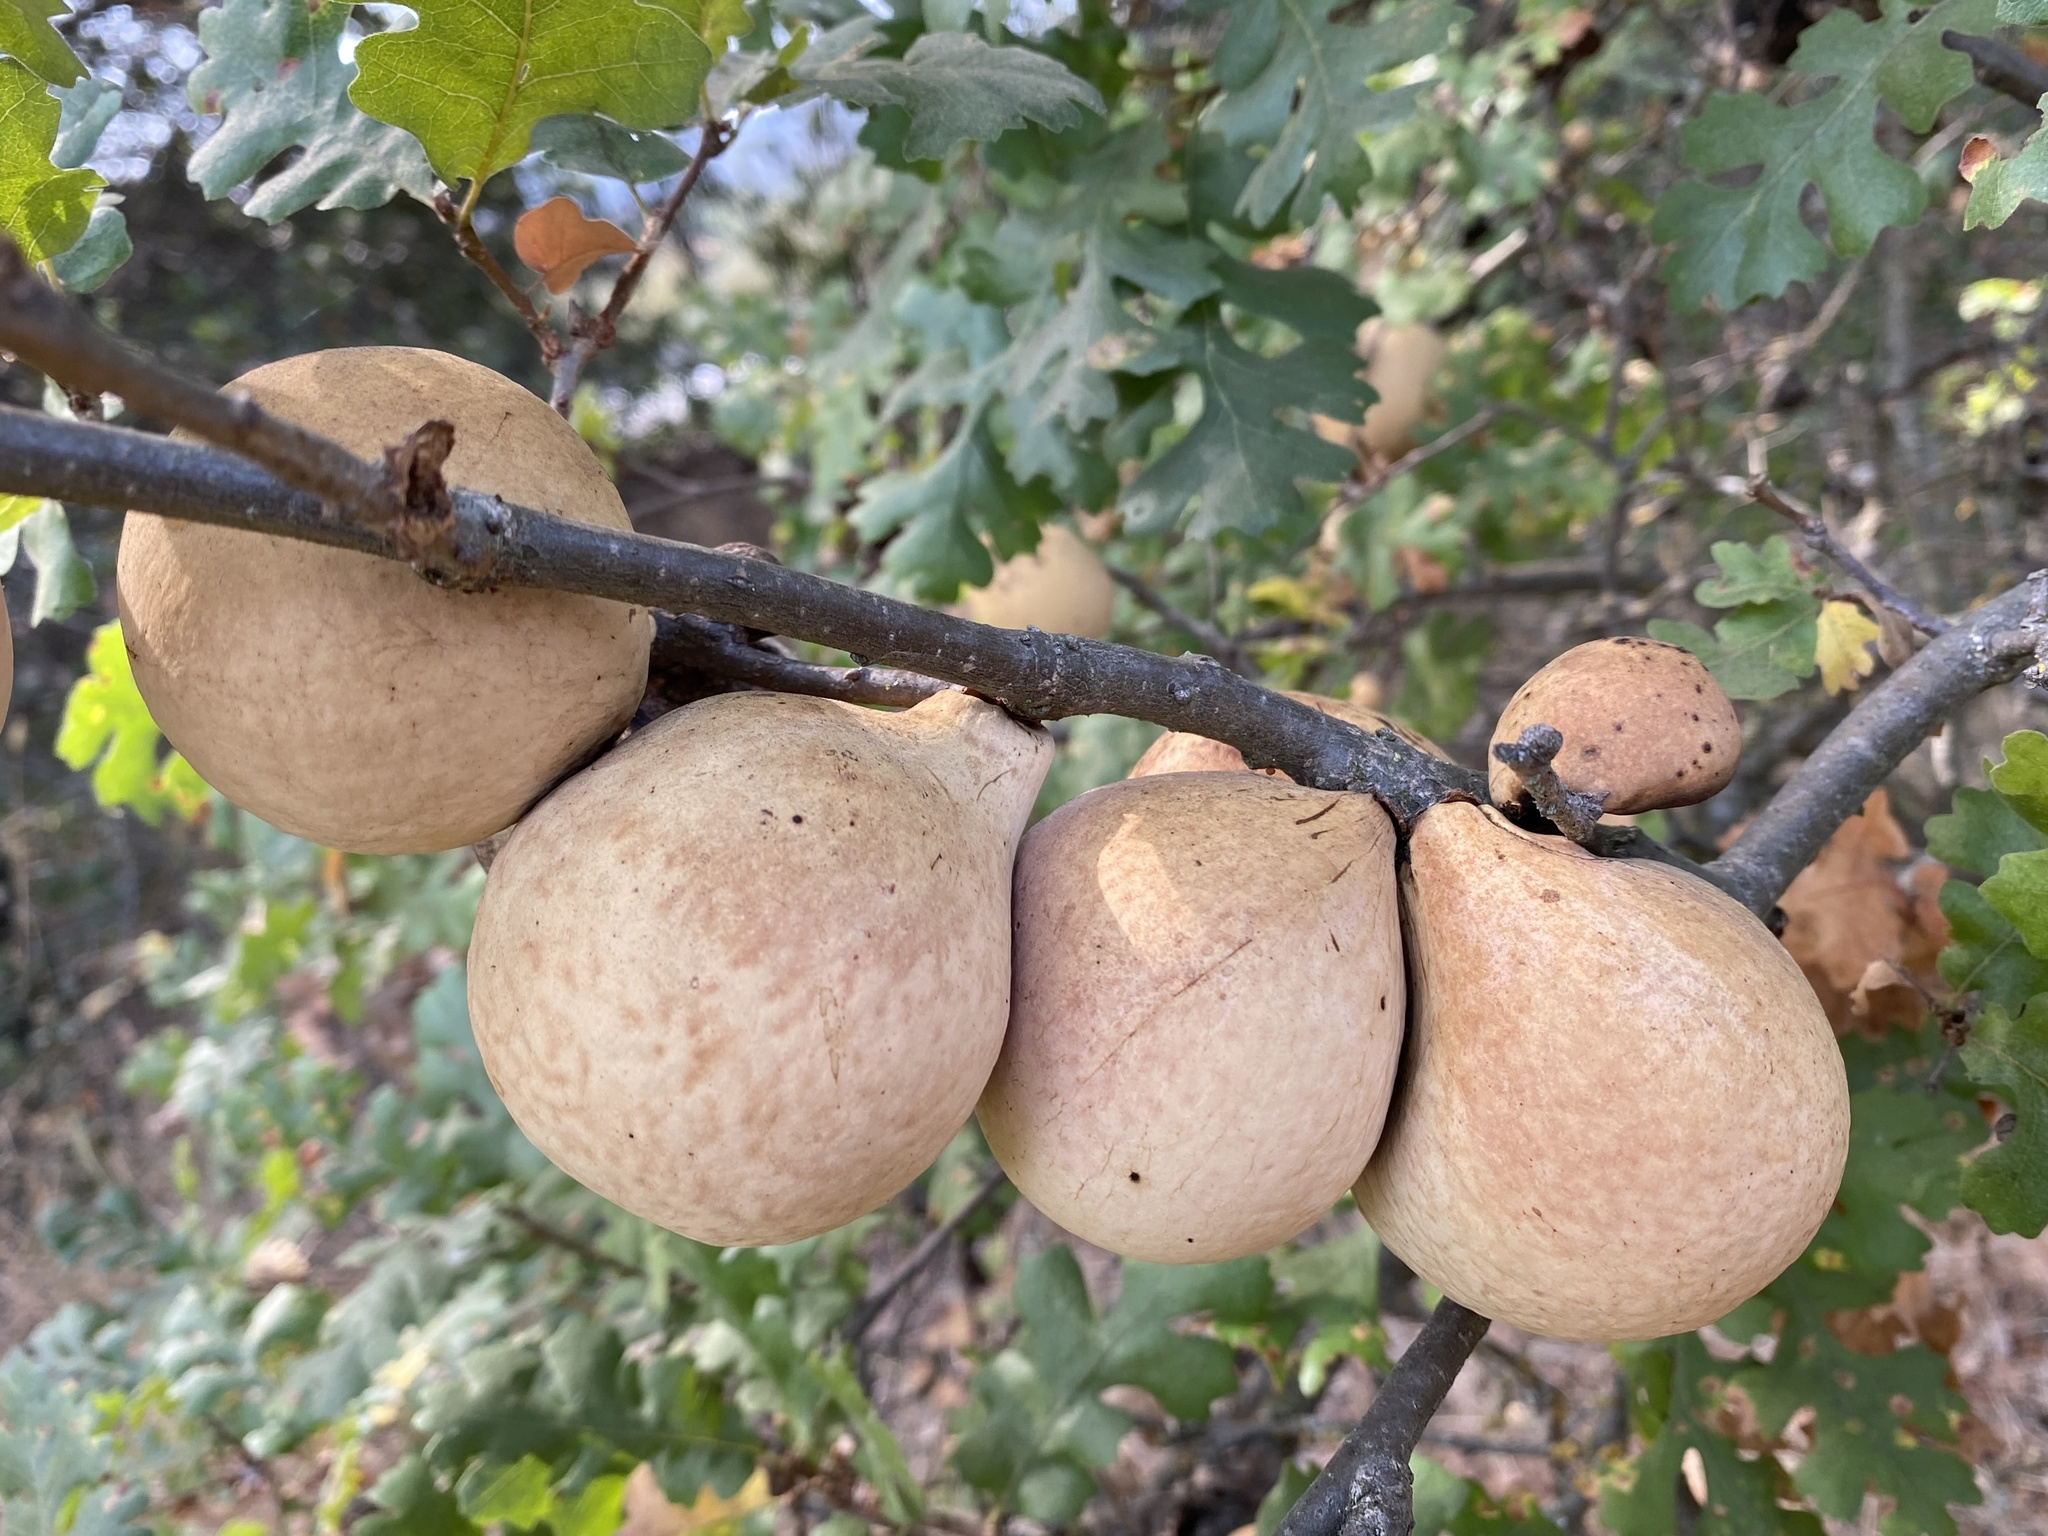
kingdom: Animalia
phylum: Arthropoda
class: Insecta
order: Hymenoptera
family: Cynipidae
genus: Andricus
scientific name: Andricus quercuscalifornicus
